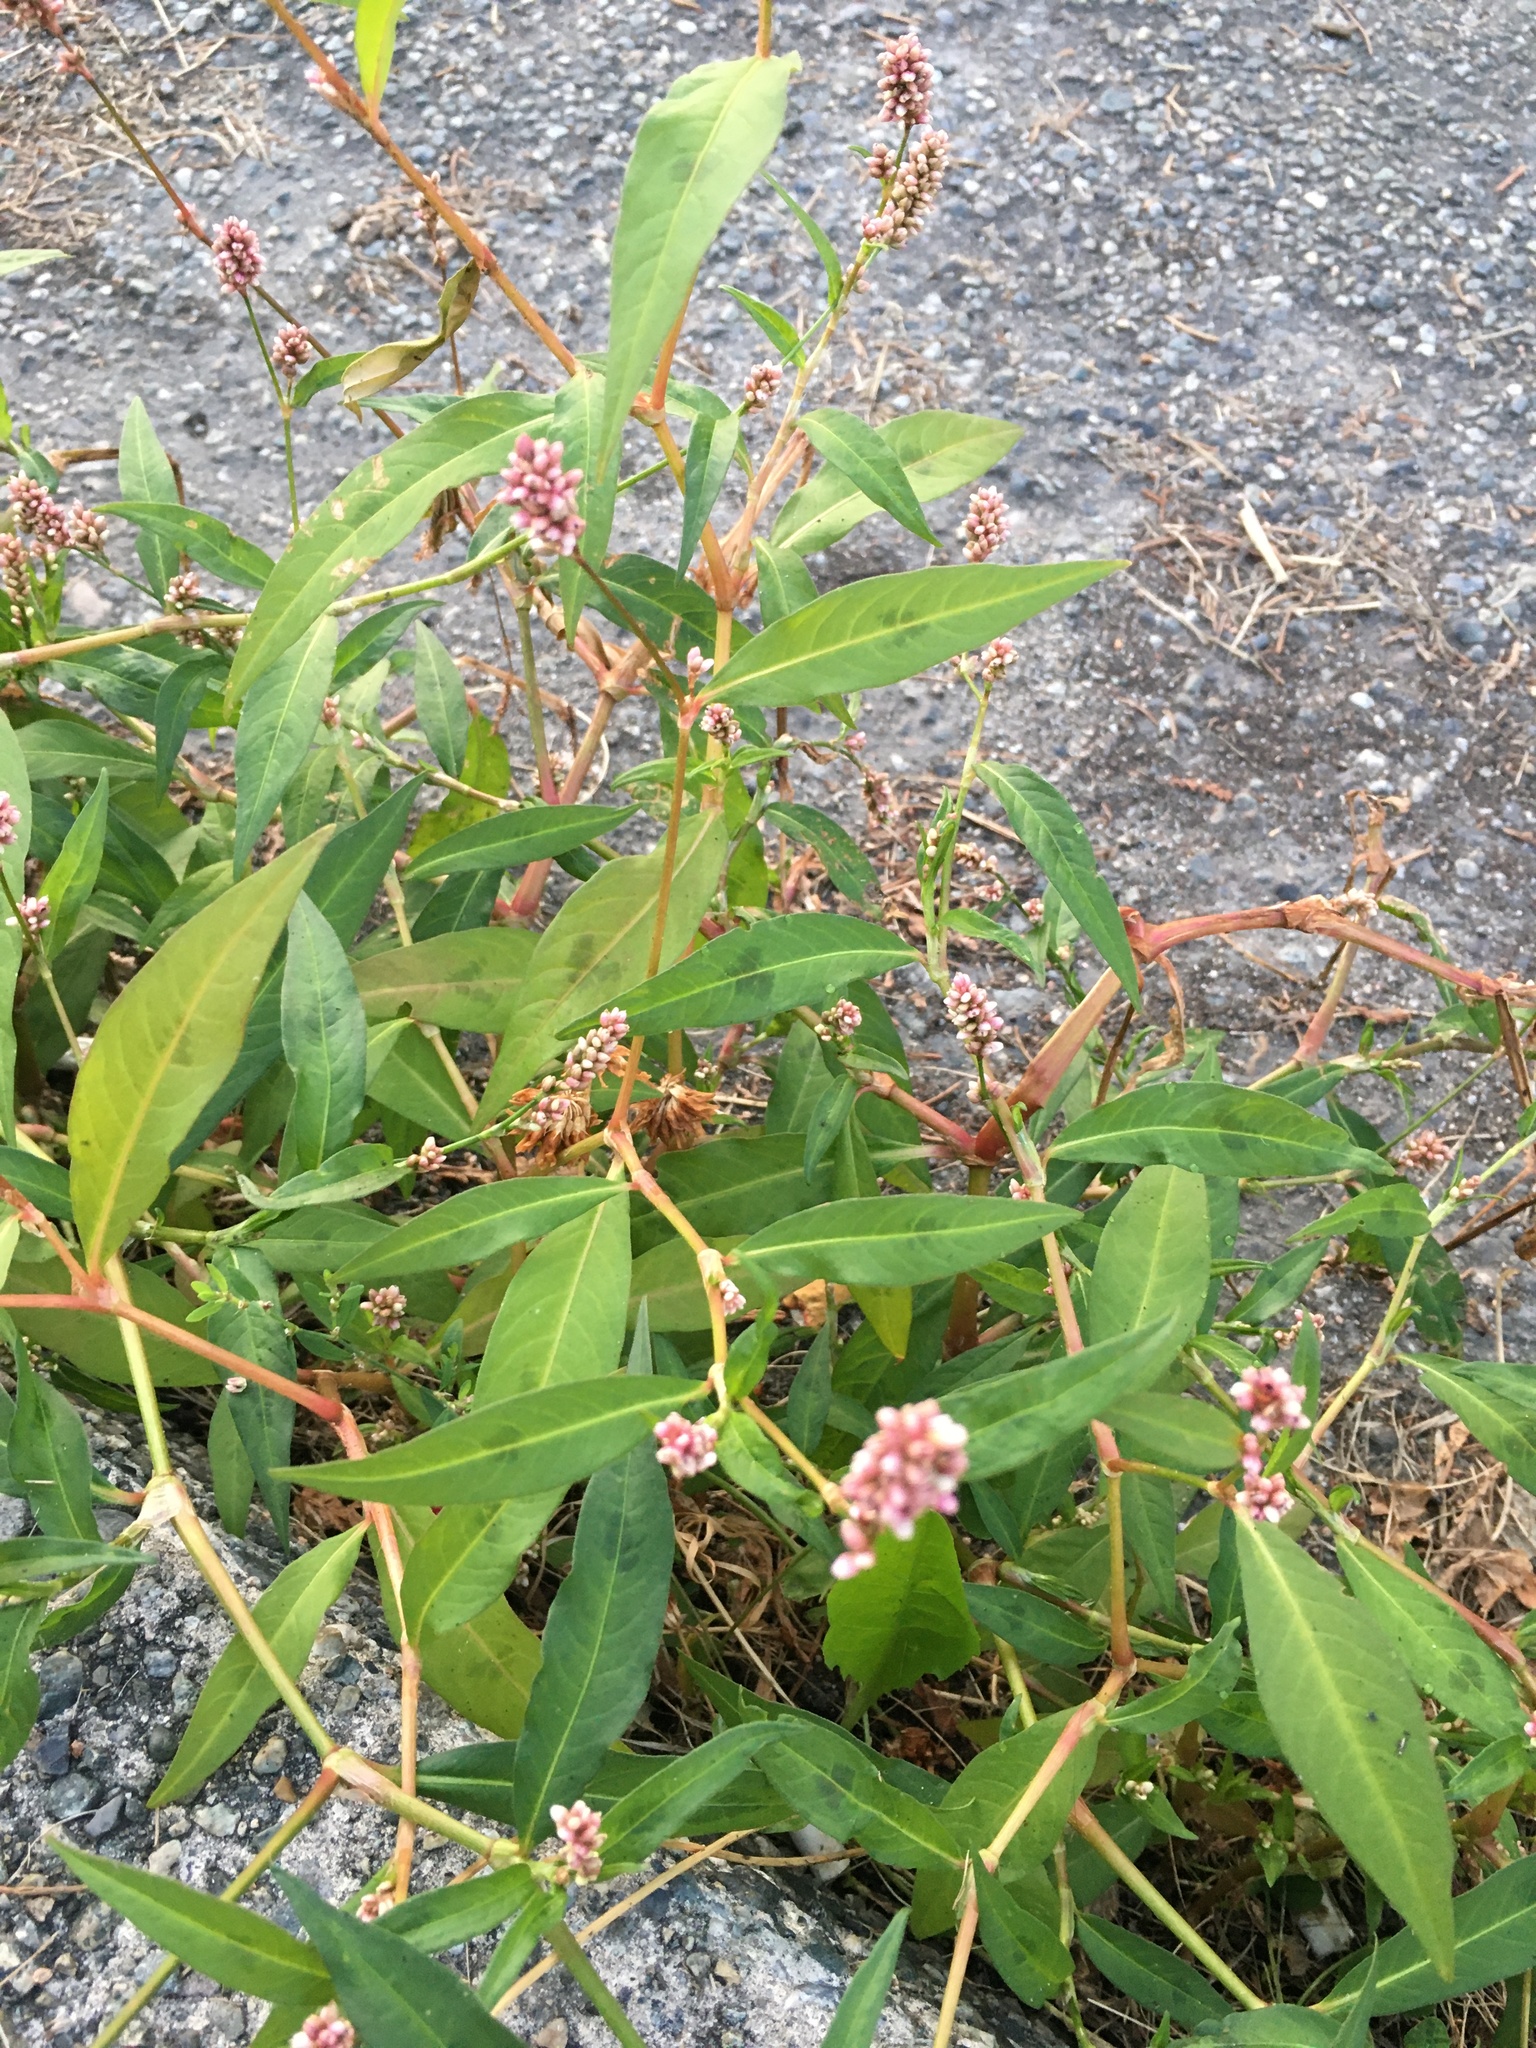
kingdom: Plantae
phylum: Tracheophyta
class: Magnoliopsida
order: Caryophyllales
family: Polygonaceae
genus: Persicaria
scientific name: Persicaria maculosa
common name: Redshank
